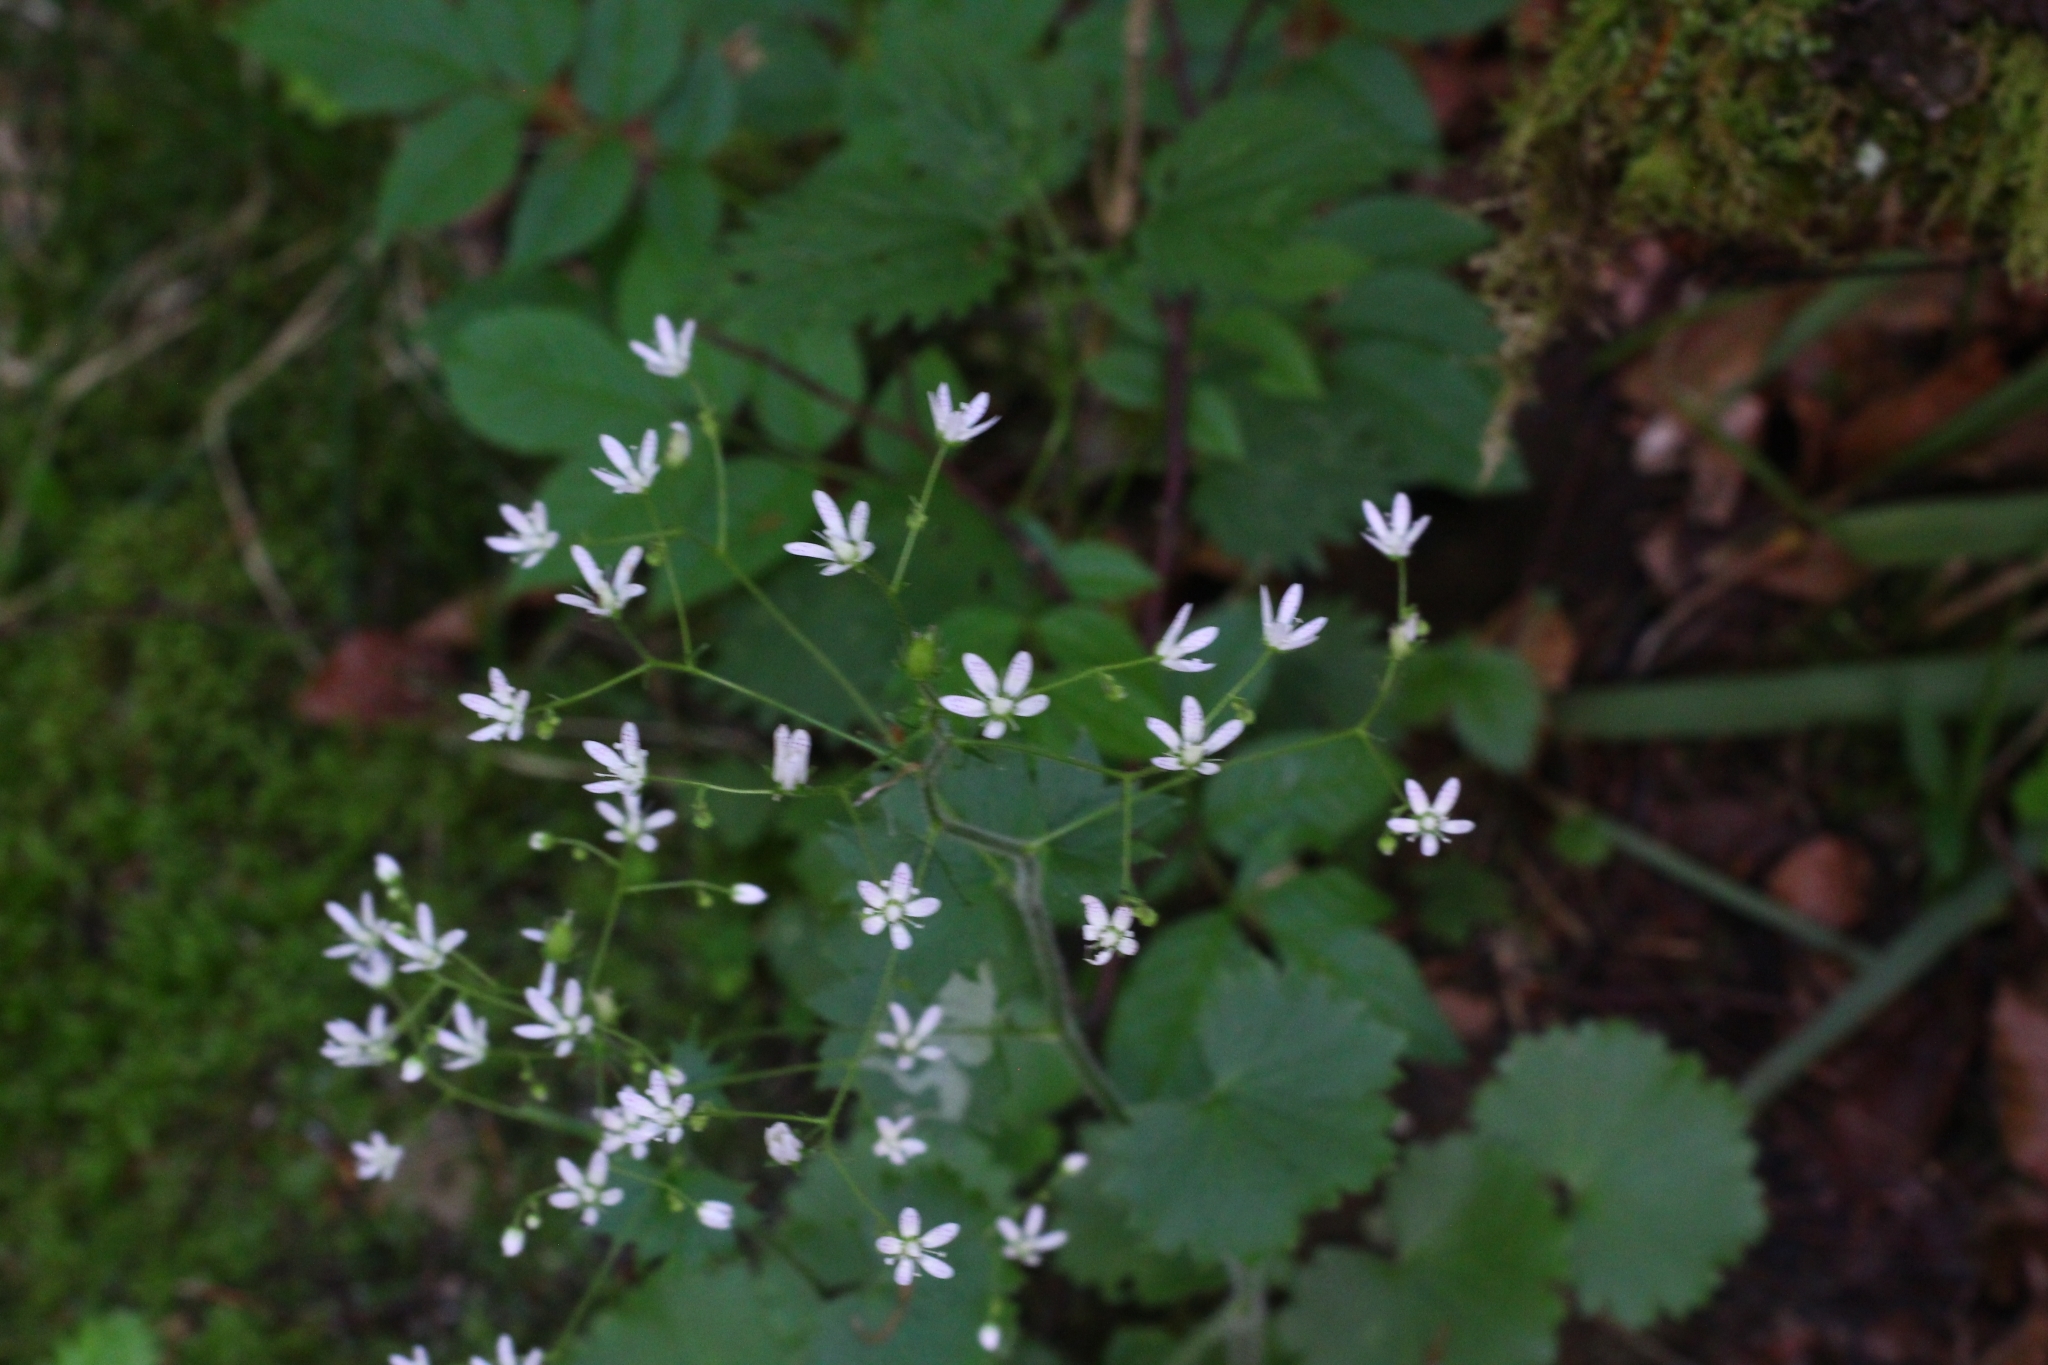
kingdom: Plantae
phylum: Tracheophyta
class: Magnoliopsida
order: Saxifragales
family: Saxifragaceae
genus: Saxifraga
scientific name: Saxifraga rotundifolia
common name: Round-leaved saxifrage
